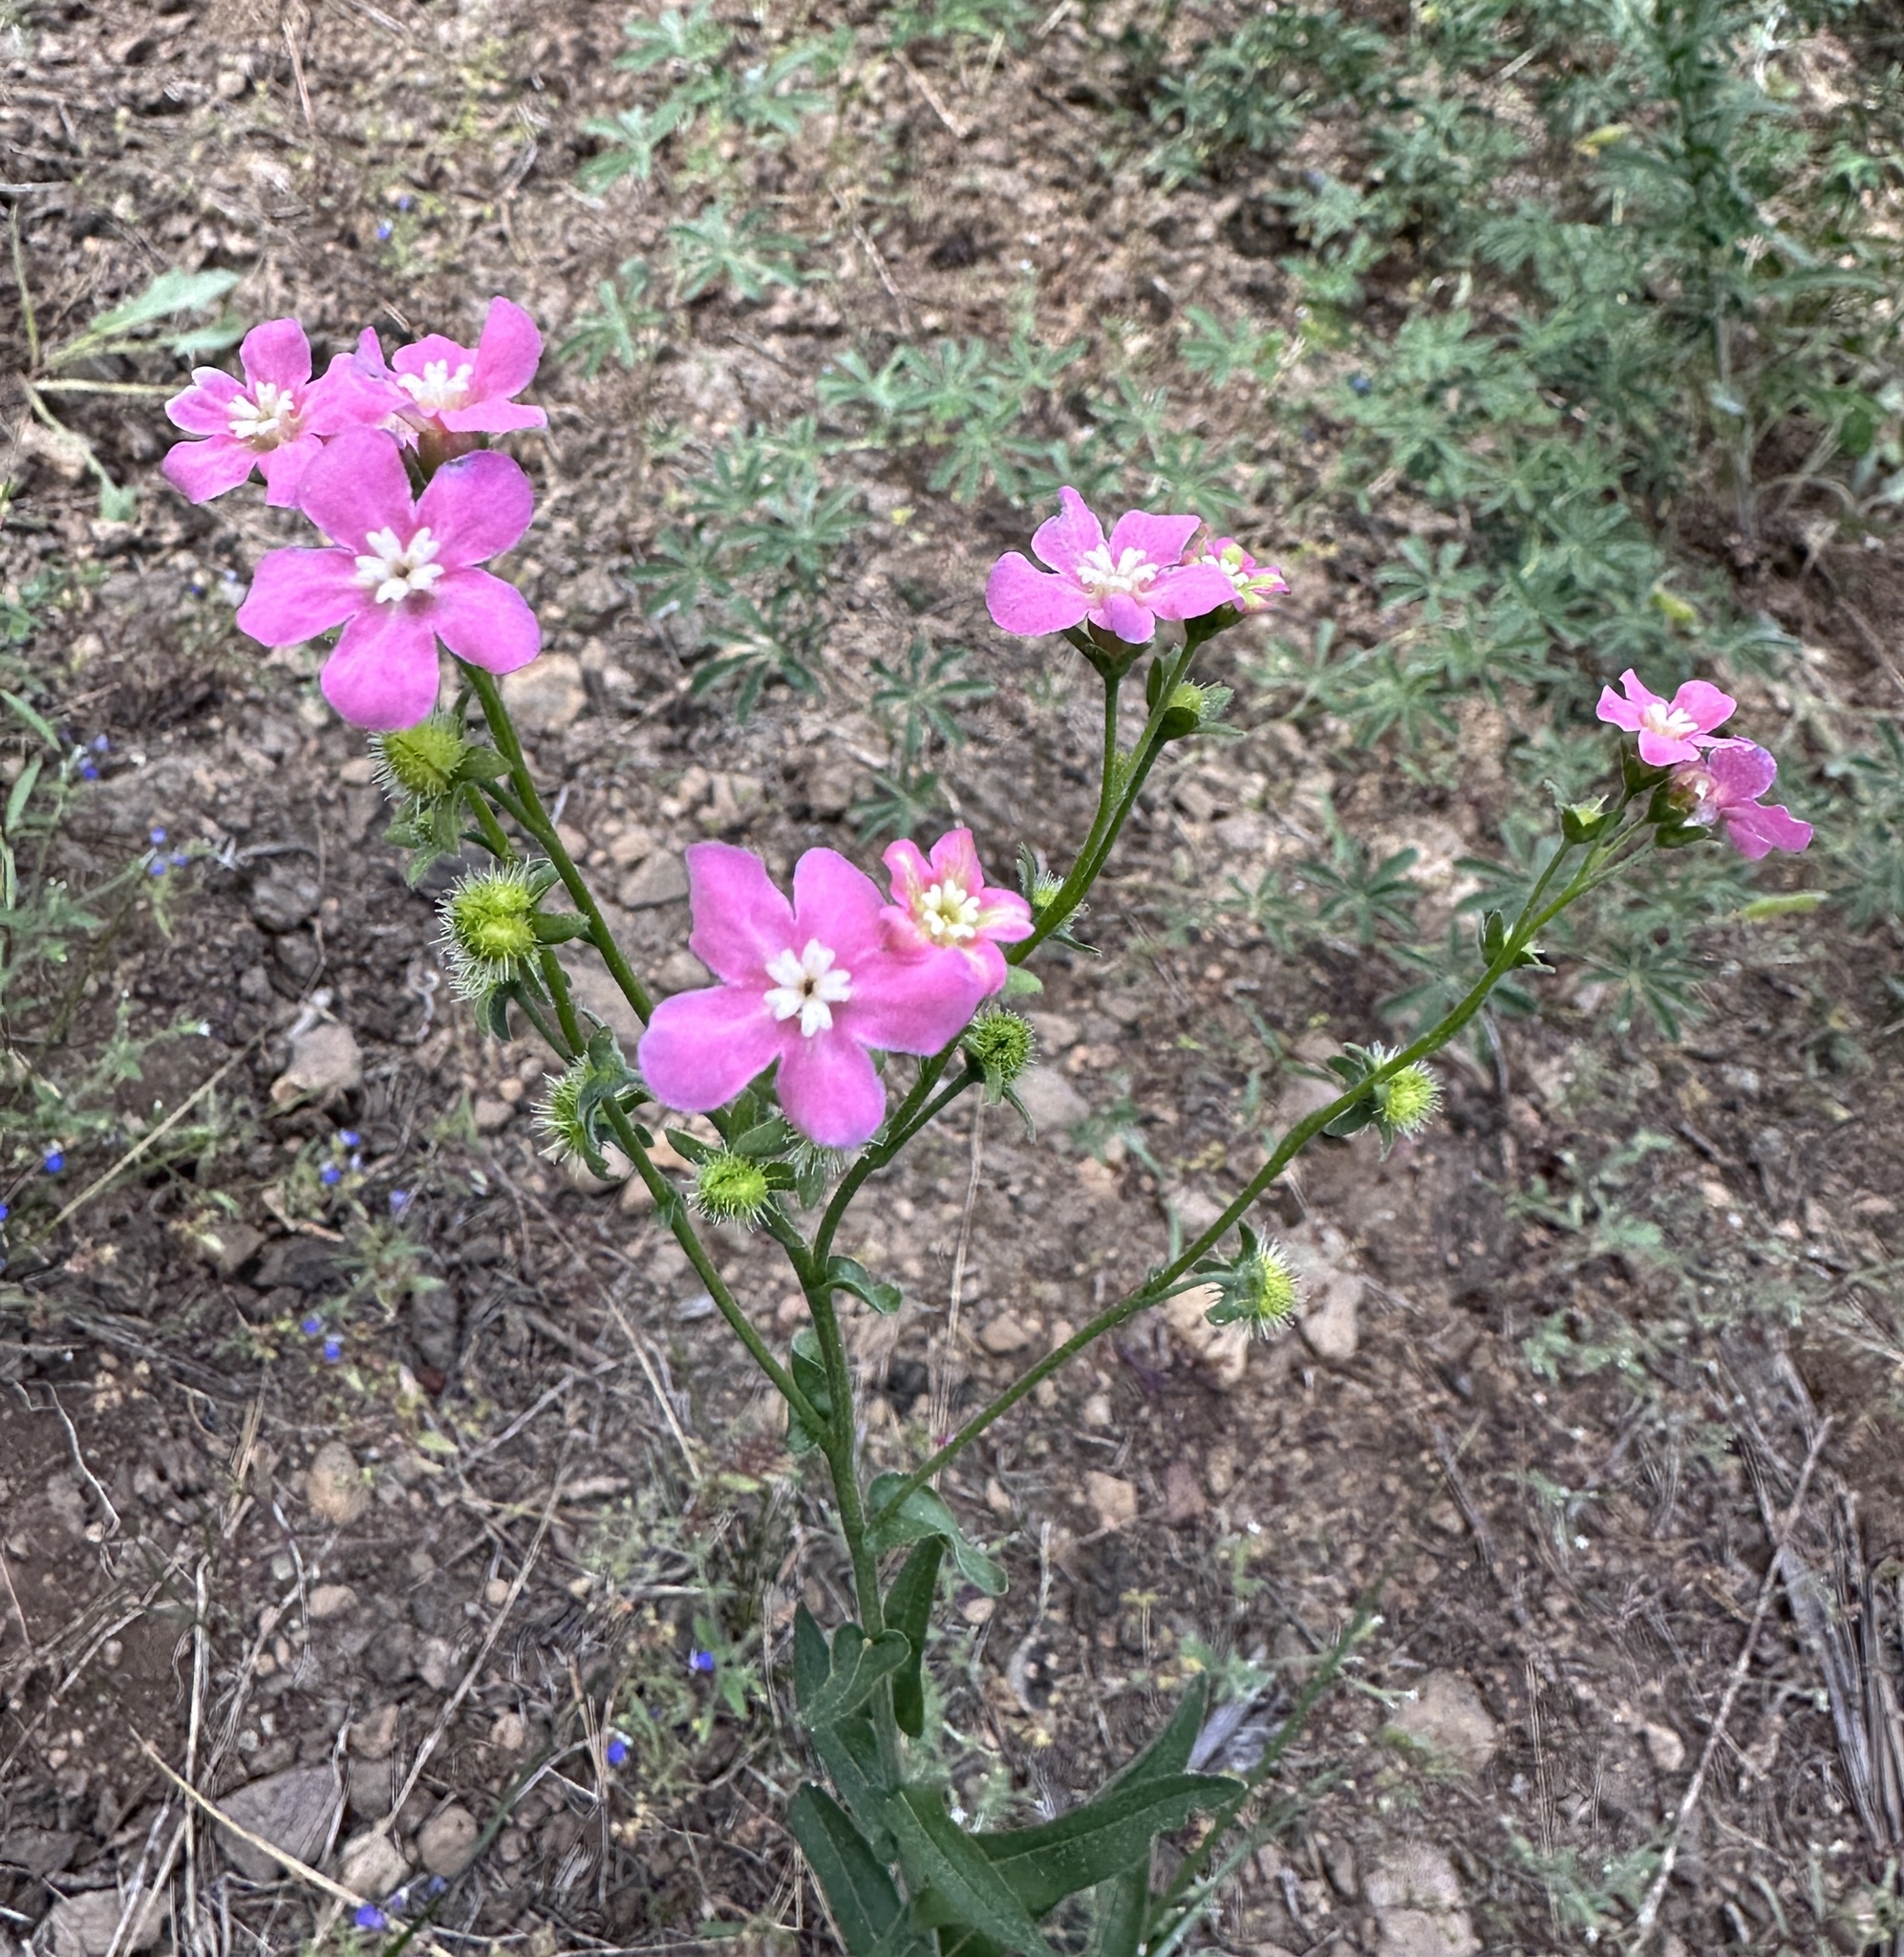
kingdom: Plantae
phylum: Tracheophyta
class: Magnoliopsida
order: Boraginales
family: Boraginaceae
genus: Hackelia
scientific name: Hackelia mundula
